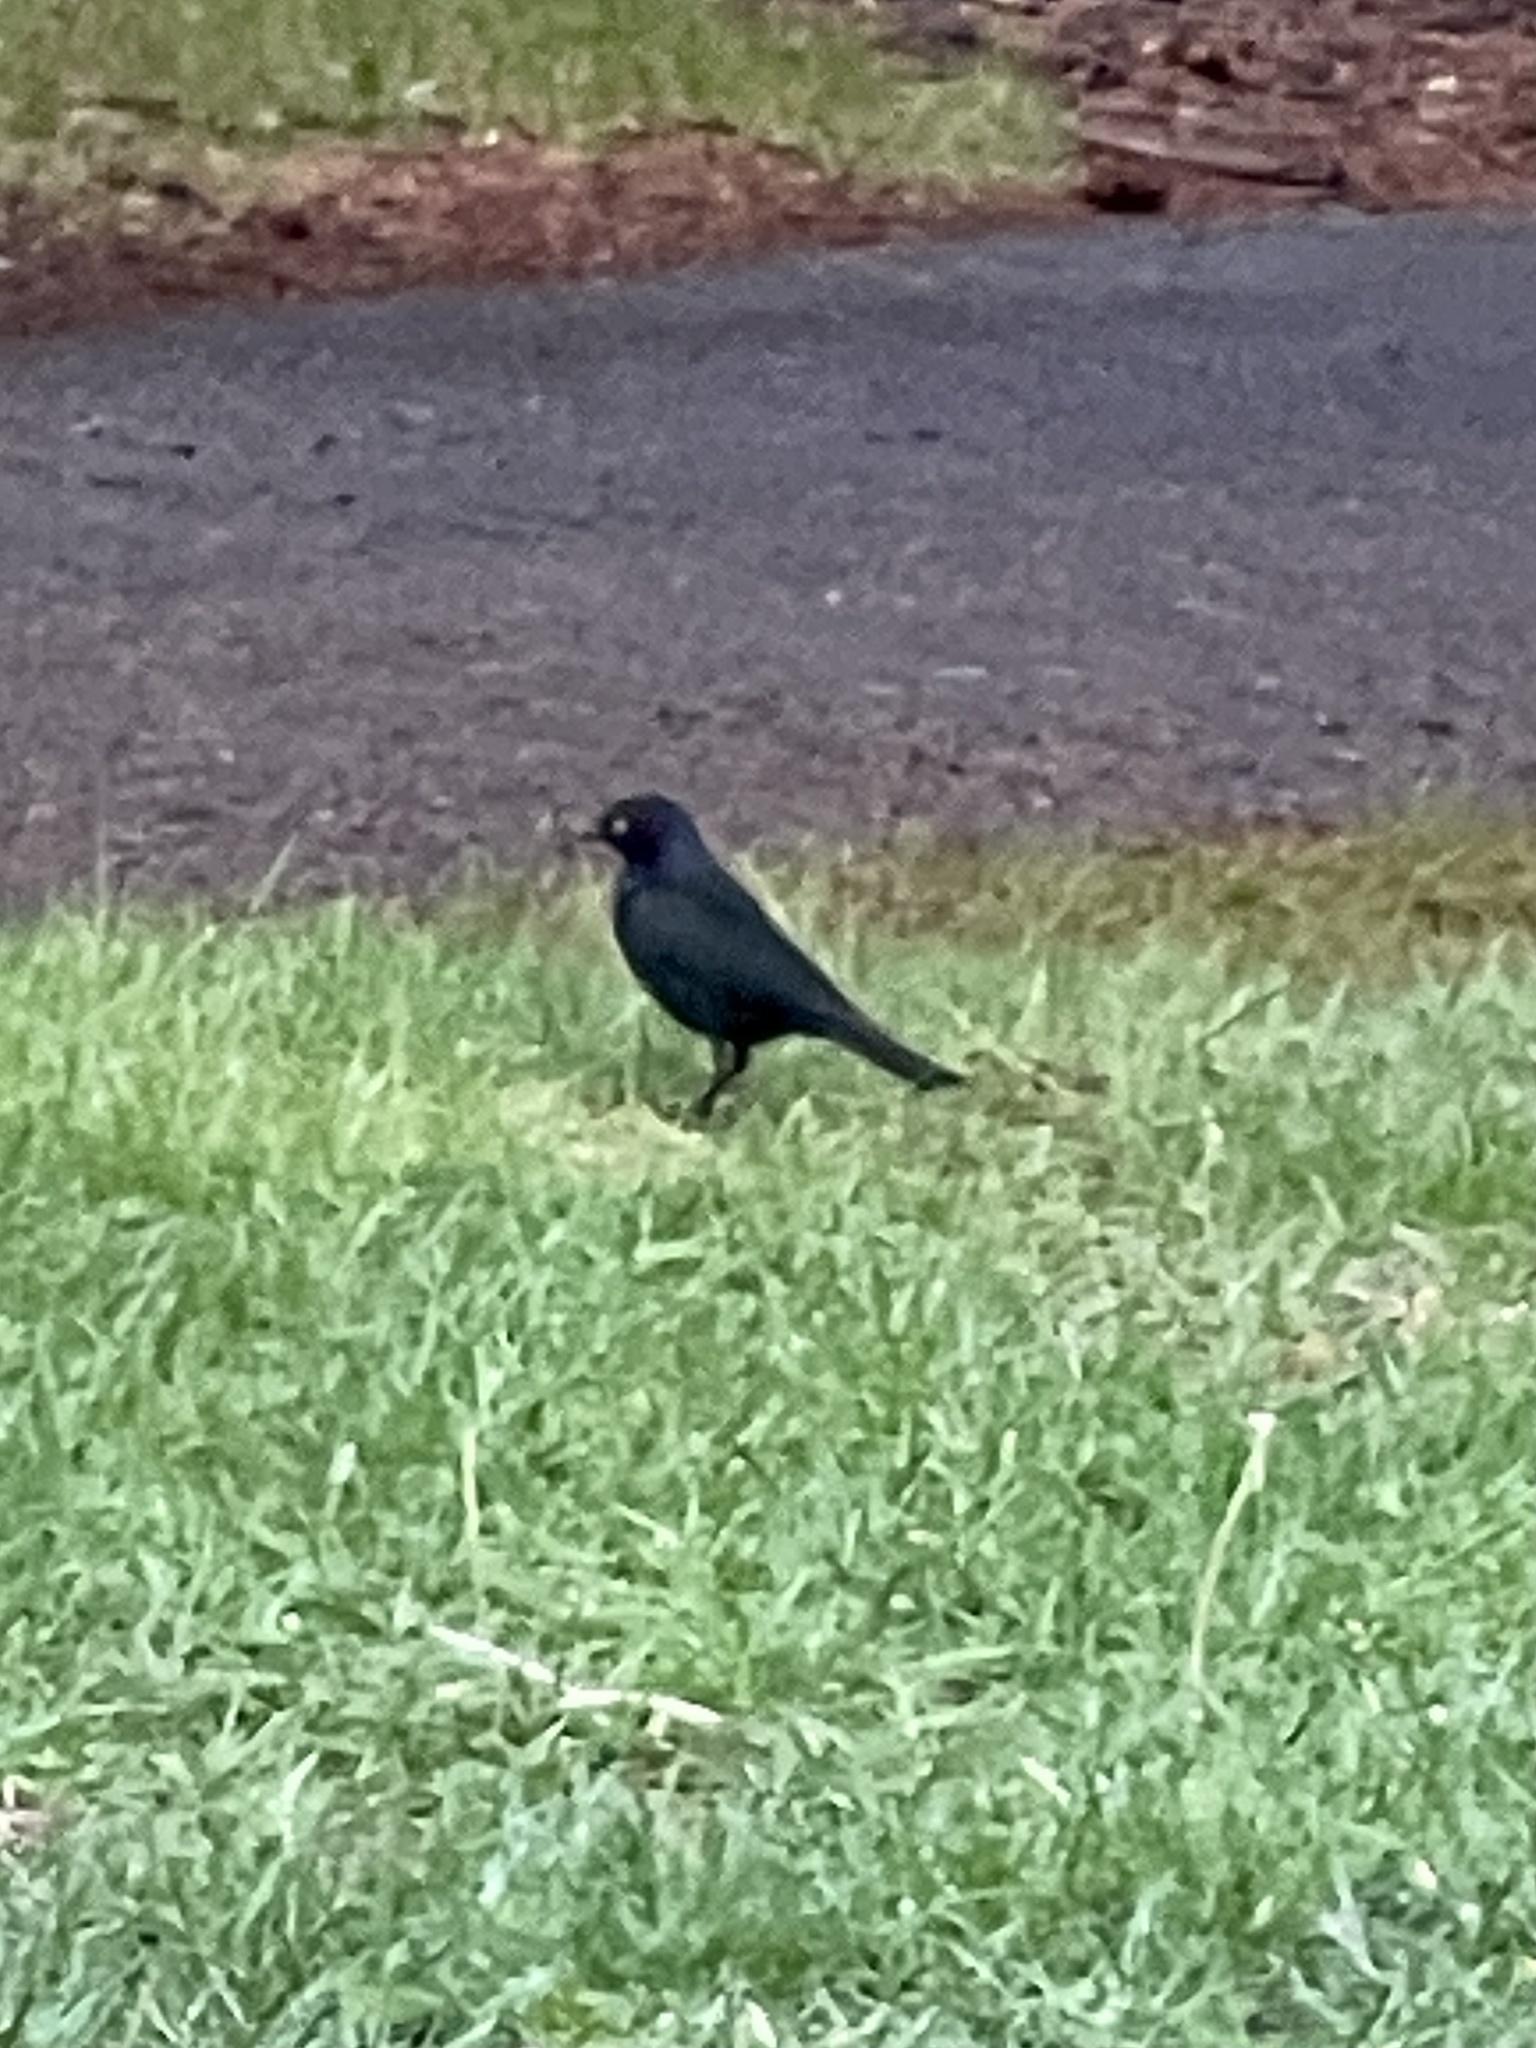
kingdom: Animalia
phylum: Chordata
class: Aves
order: Passeriformes
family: Icteridae
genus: Euphagus
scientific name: Euphagus cyanocephalus
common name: Brewer's blackbird
